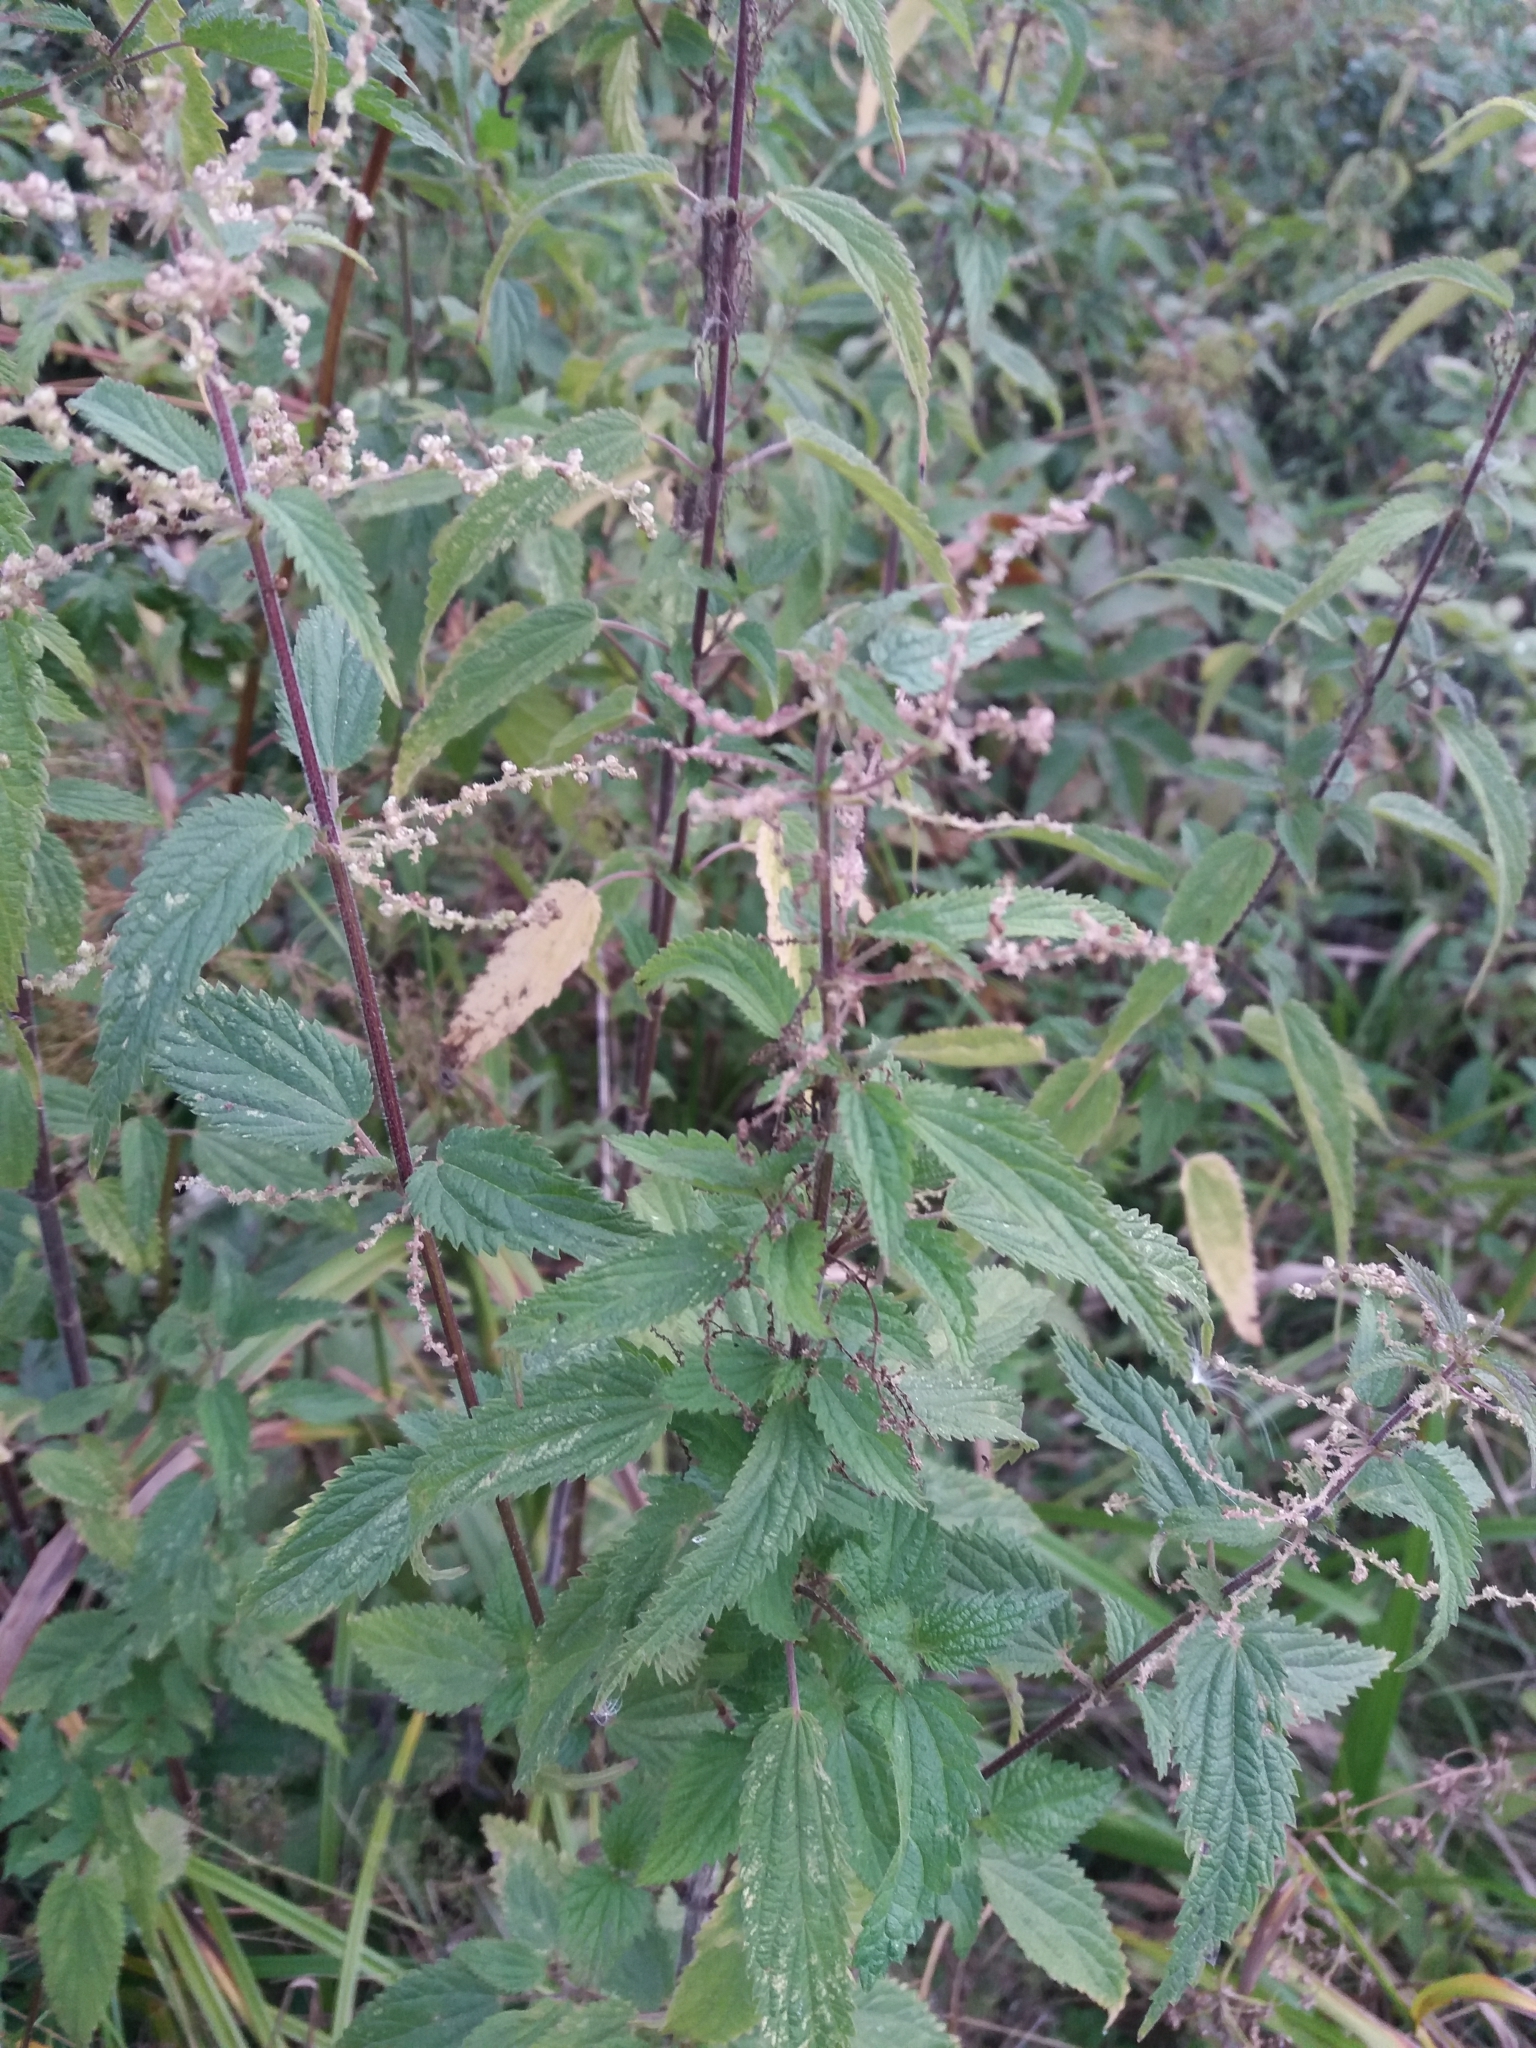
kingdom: Plantae
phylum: Tracheophyta
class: Magnoliopsida
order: Rosales
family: Urticaceae
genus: Urtica
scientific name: Urtica dioica
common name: Common nettle
